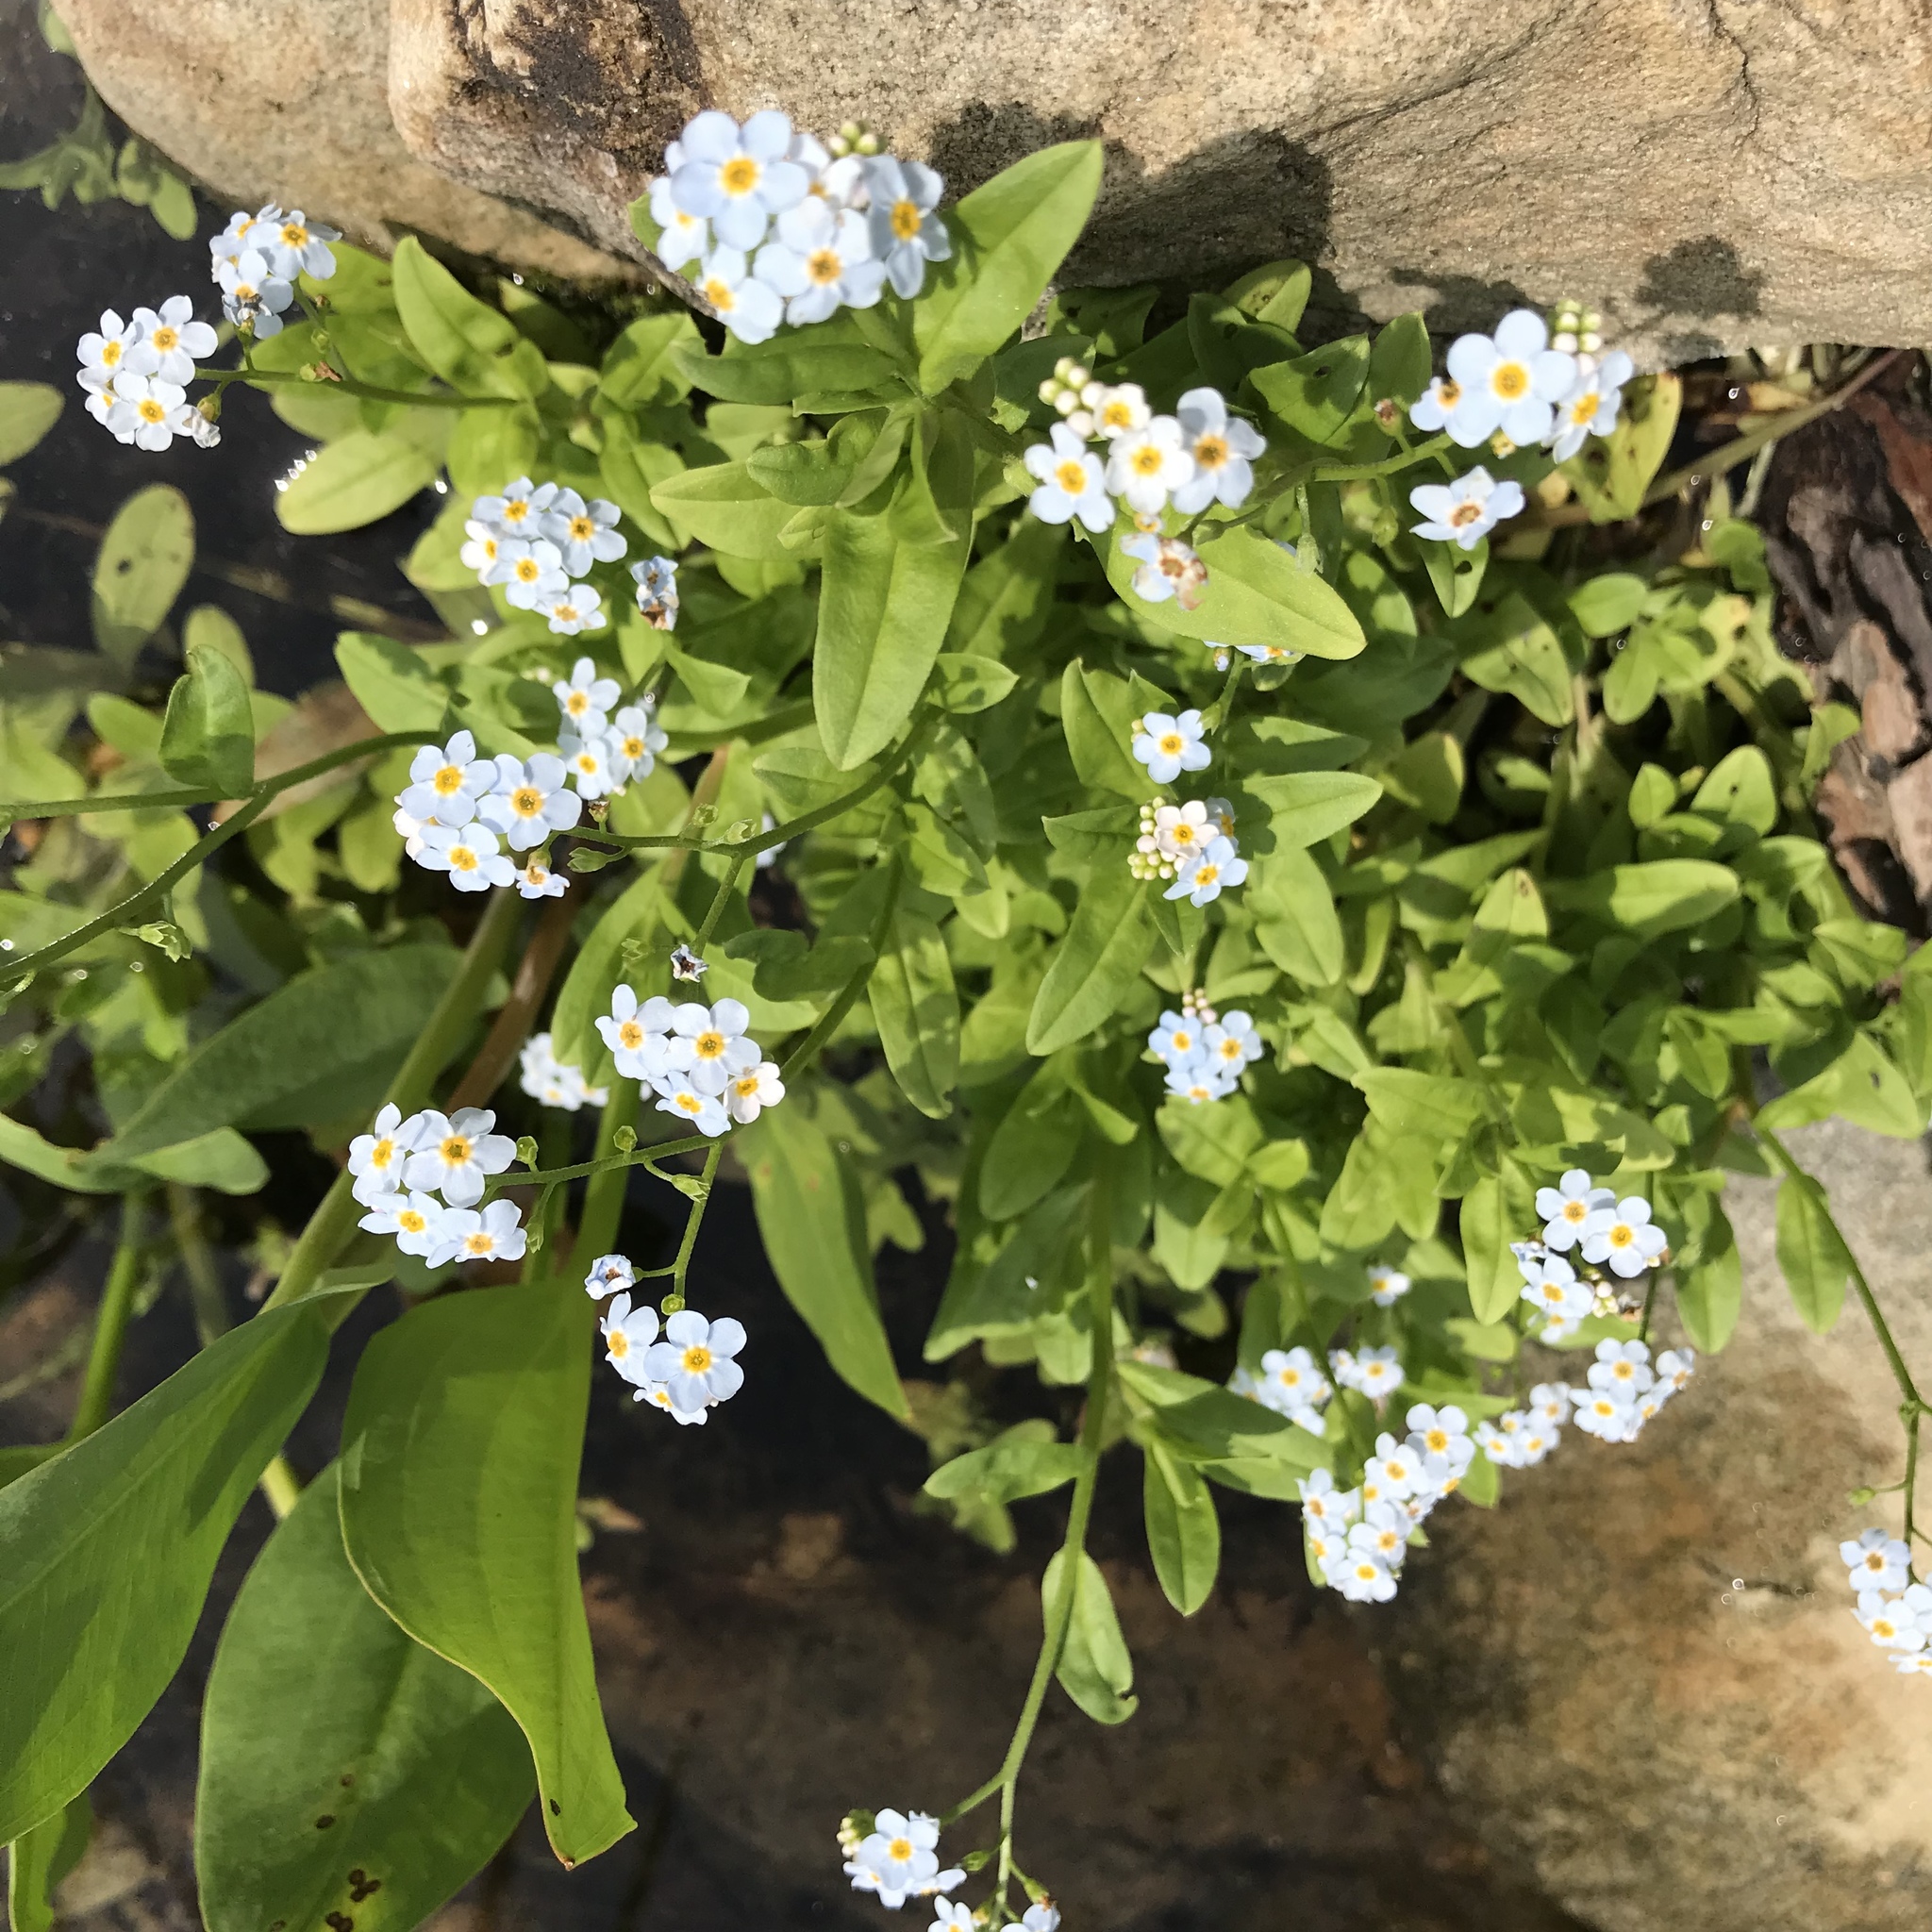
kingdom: Plantae
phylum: Tracheophyta
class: Magnoliopsida
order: Boraginales
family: Boraginaceae
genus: Myosotis
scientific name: Myosotis scorpioides
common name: Water forget-me-not
